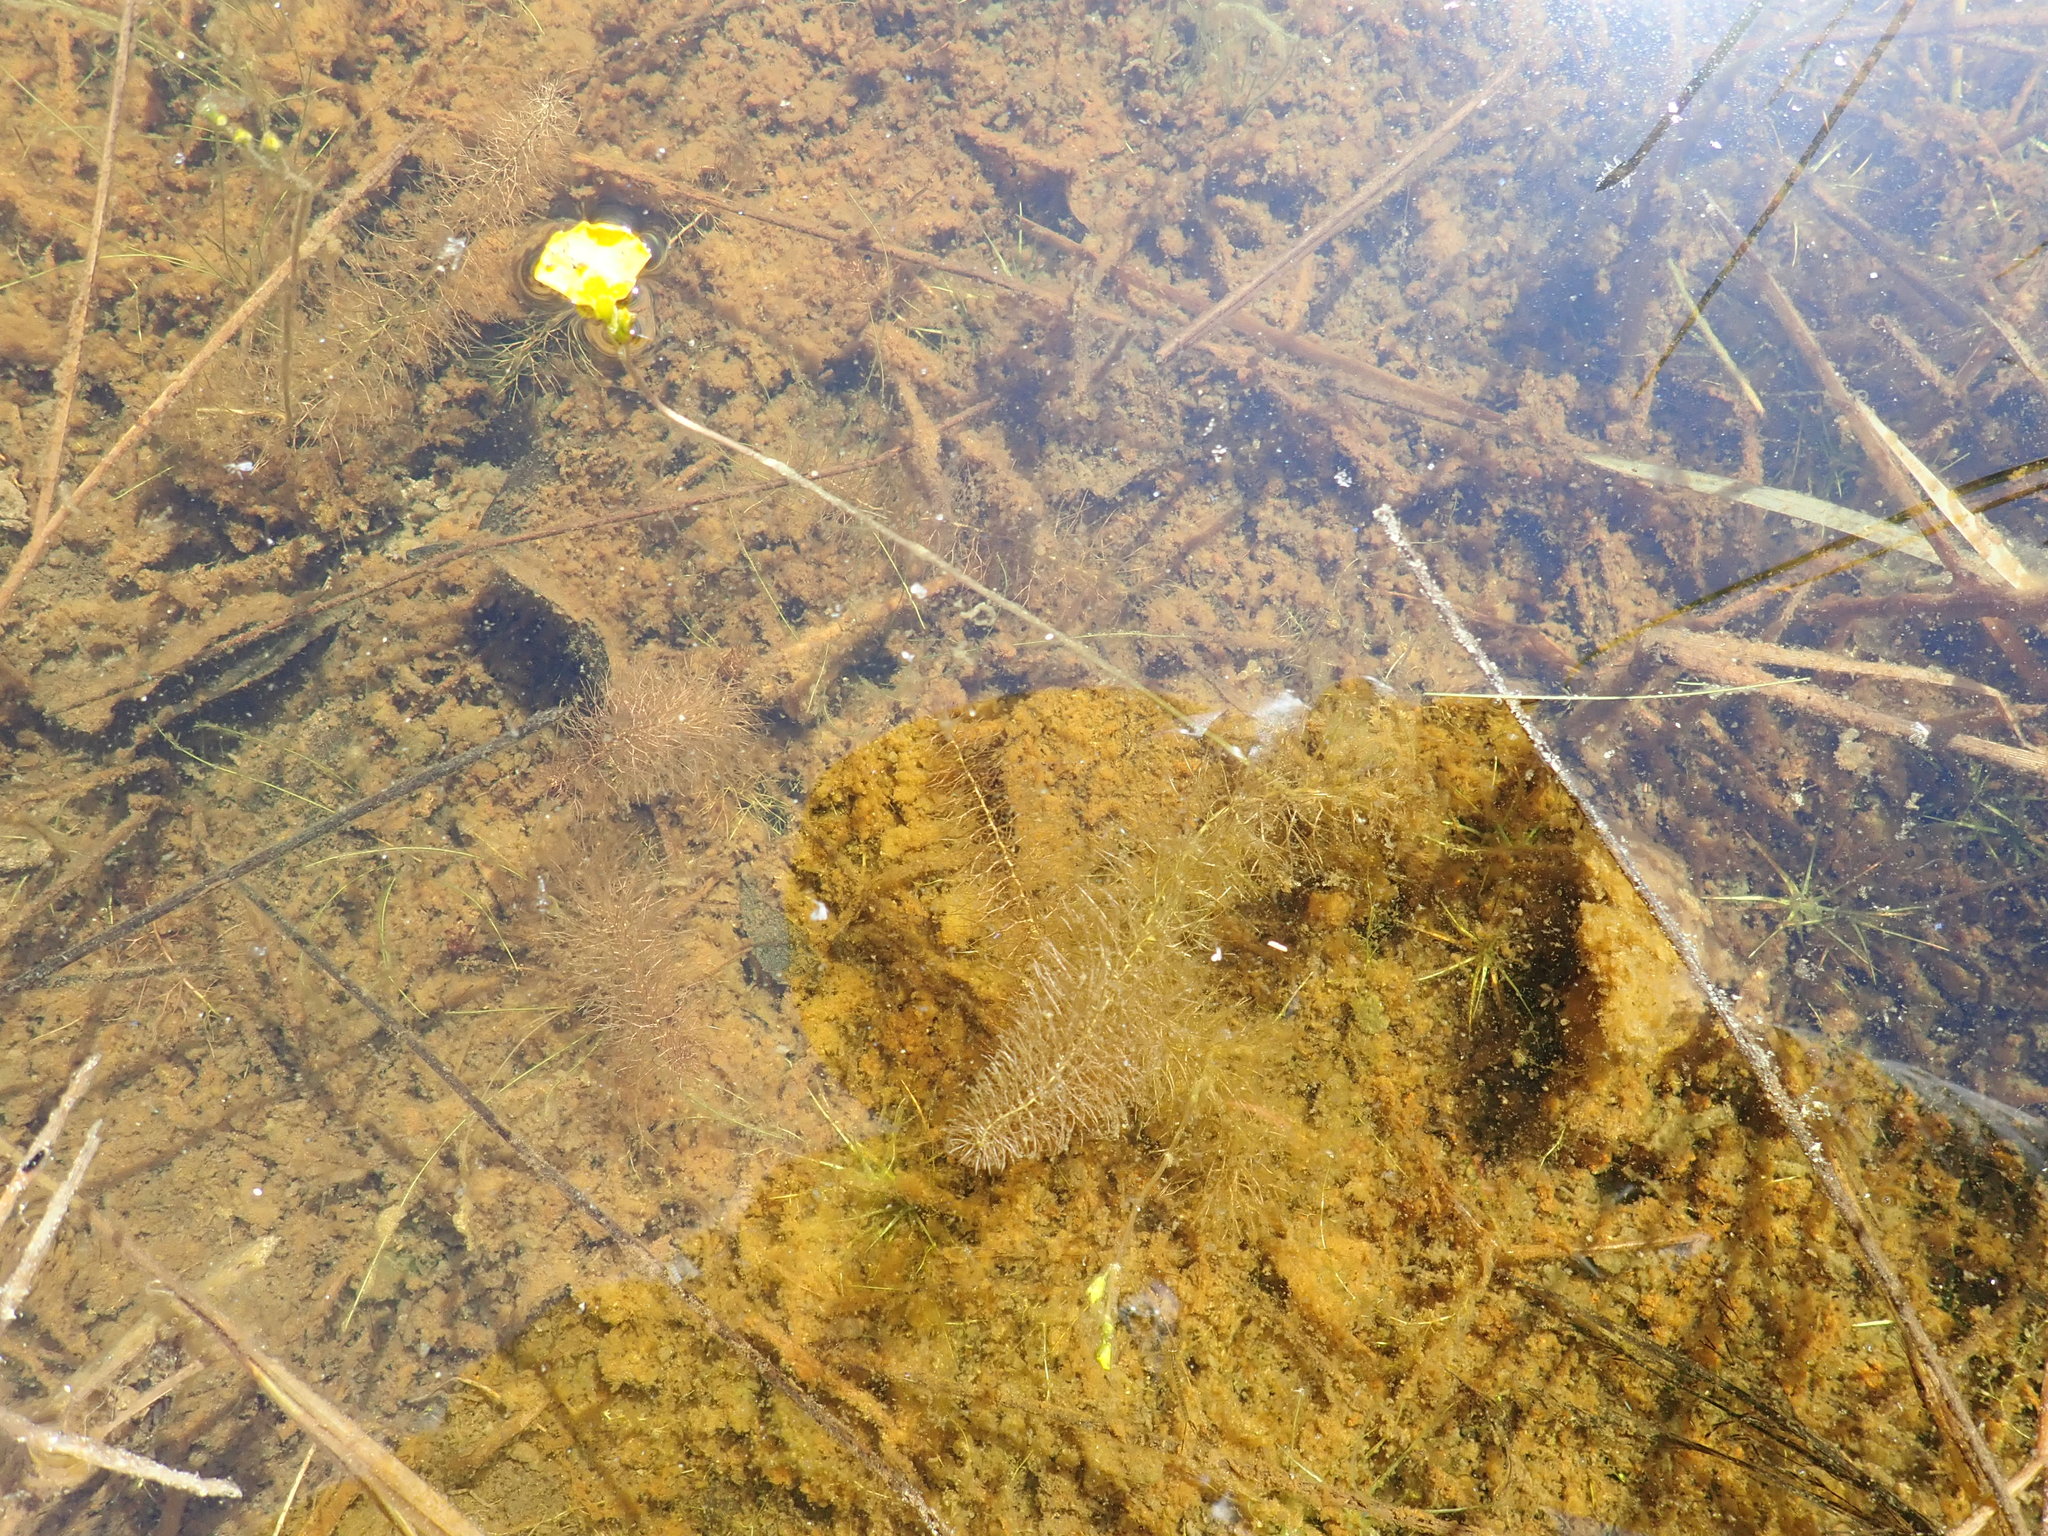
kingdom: Plantae
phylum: Tracheophyta
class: Magnoliopsida
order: Lamiales
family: Lentibulariaceae
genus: Utricularia
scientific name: Utricularia intermedia
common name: Intermediate bladderwort
